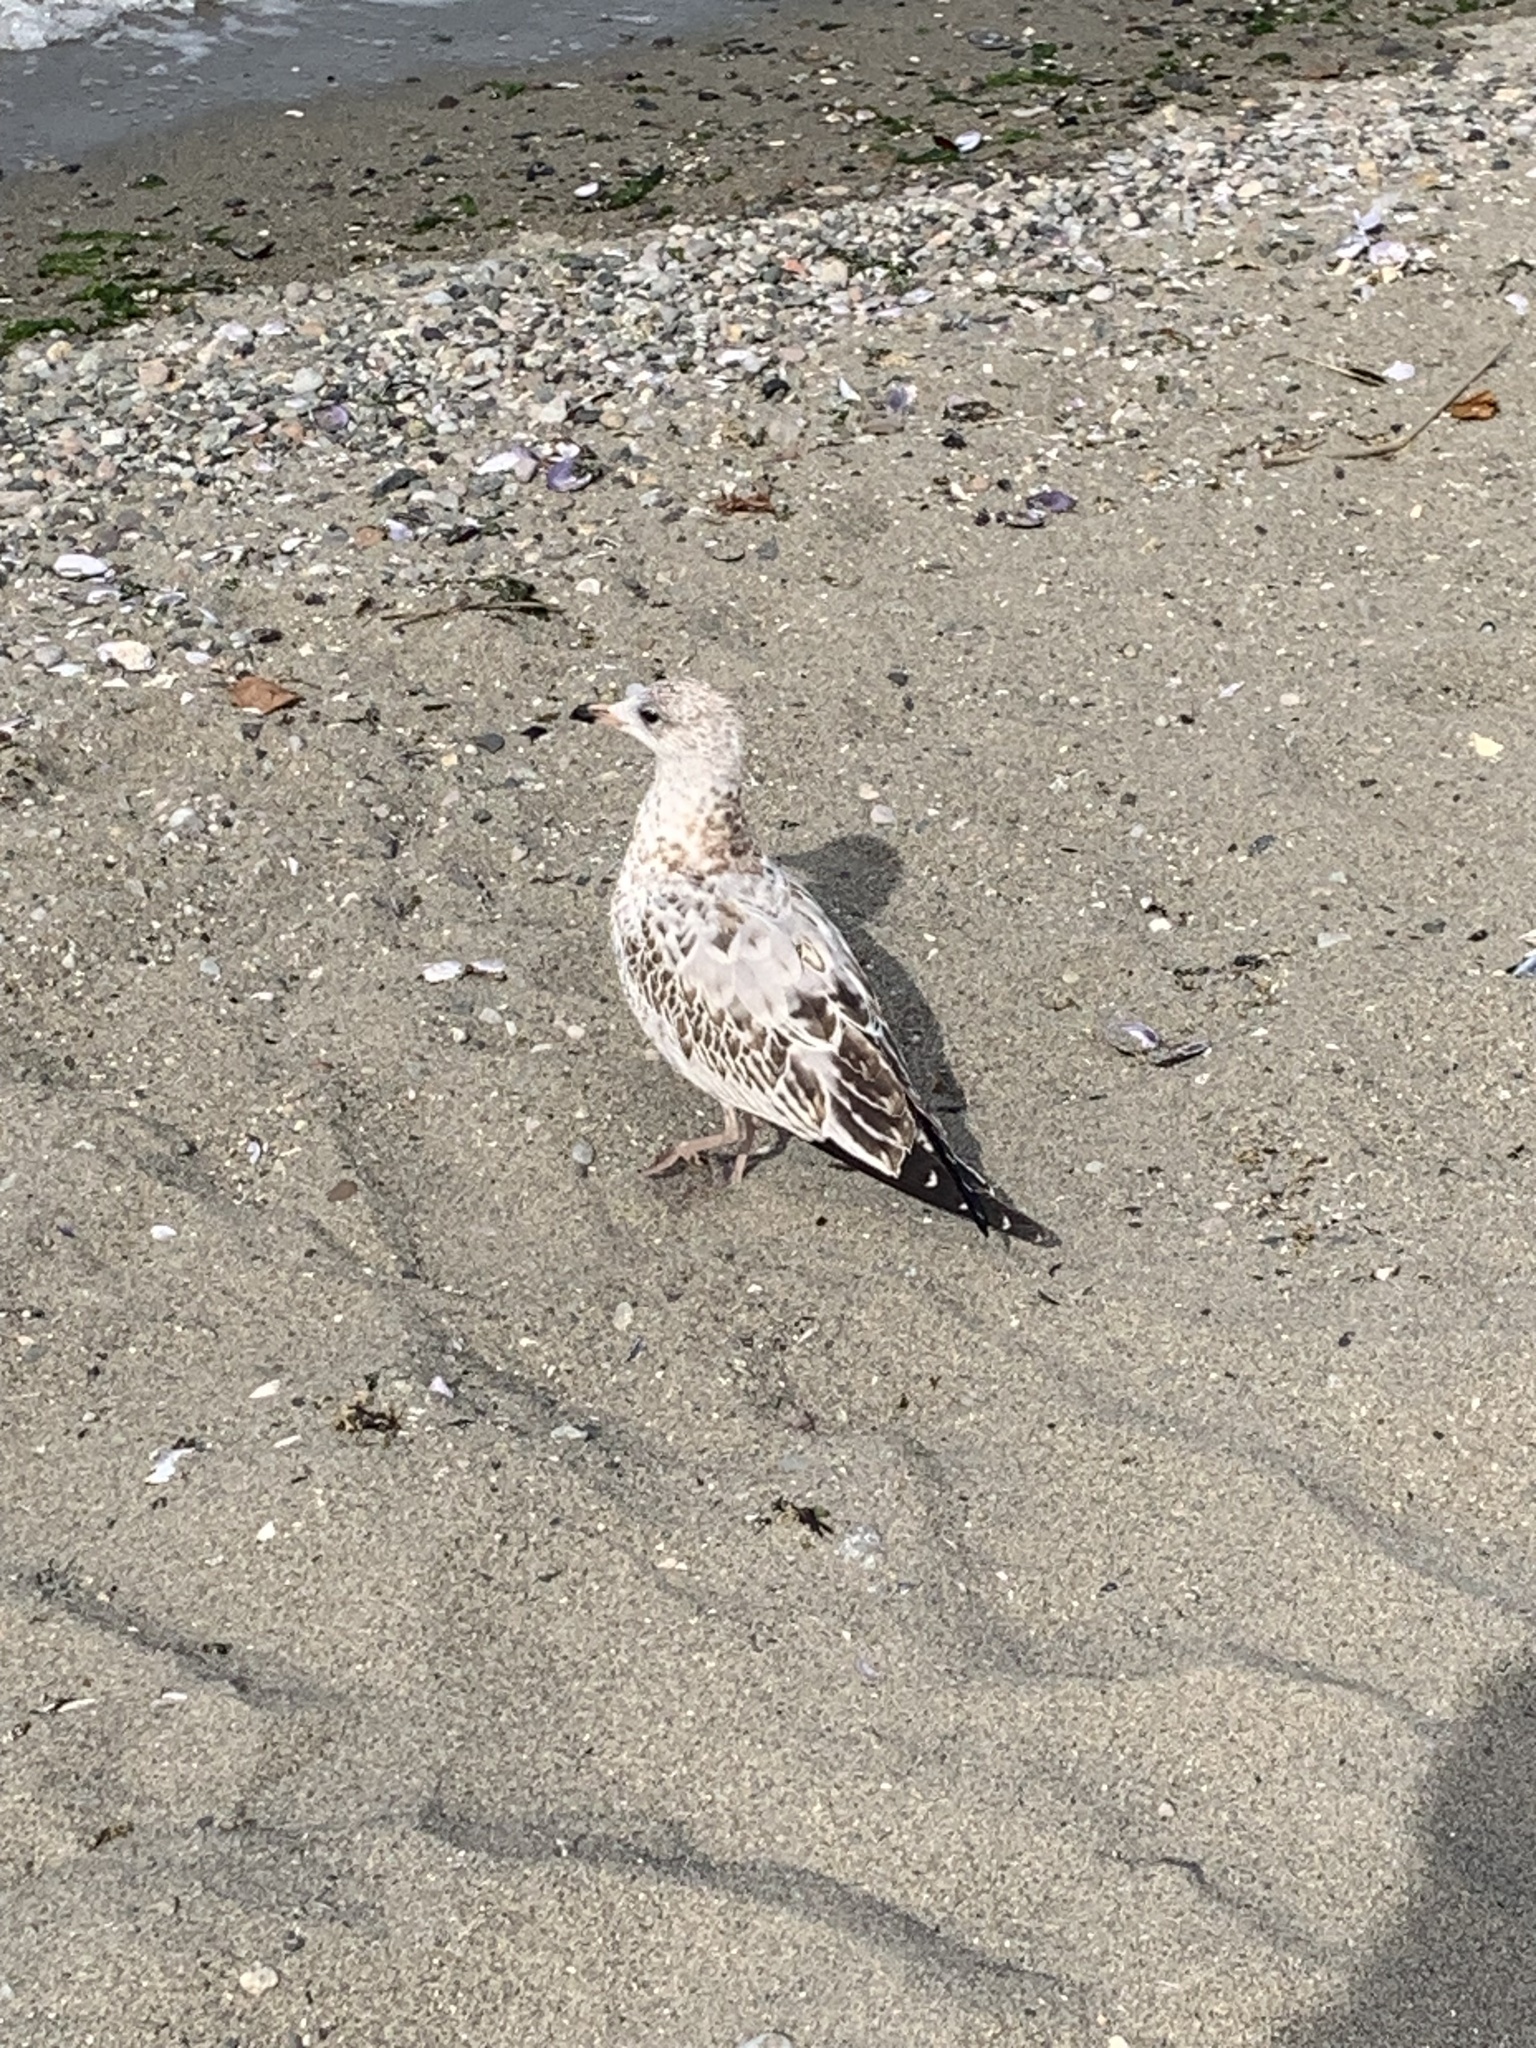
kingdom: Animalia
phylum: Chordata
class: Aves
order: Charadriiformes
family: Laridae
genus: Larus
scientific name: Larus delawarensis
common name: Ring-billed gull
